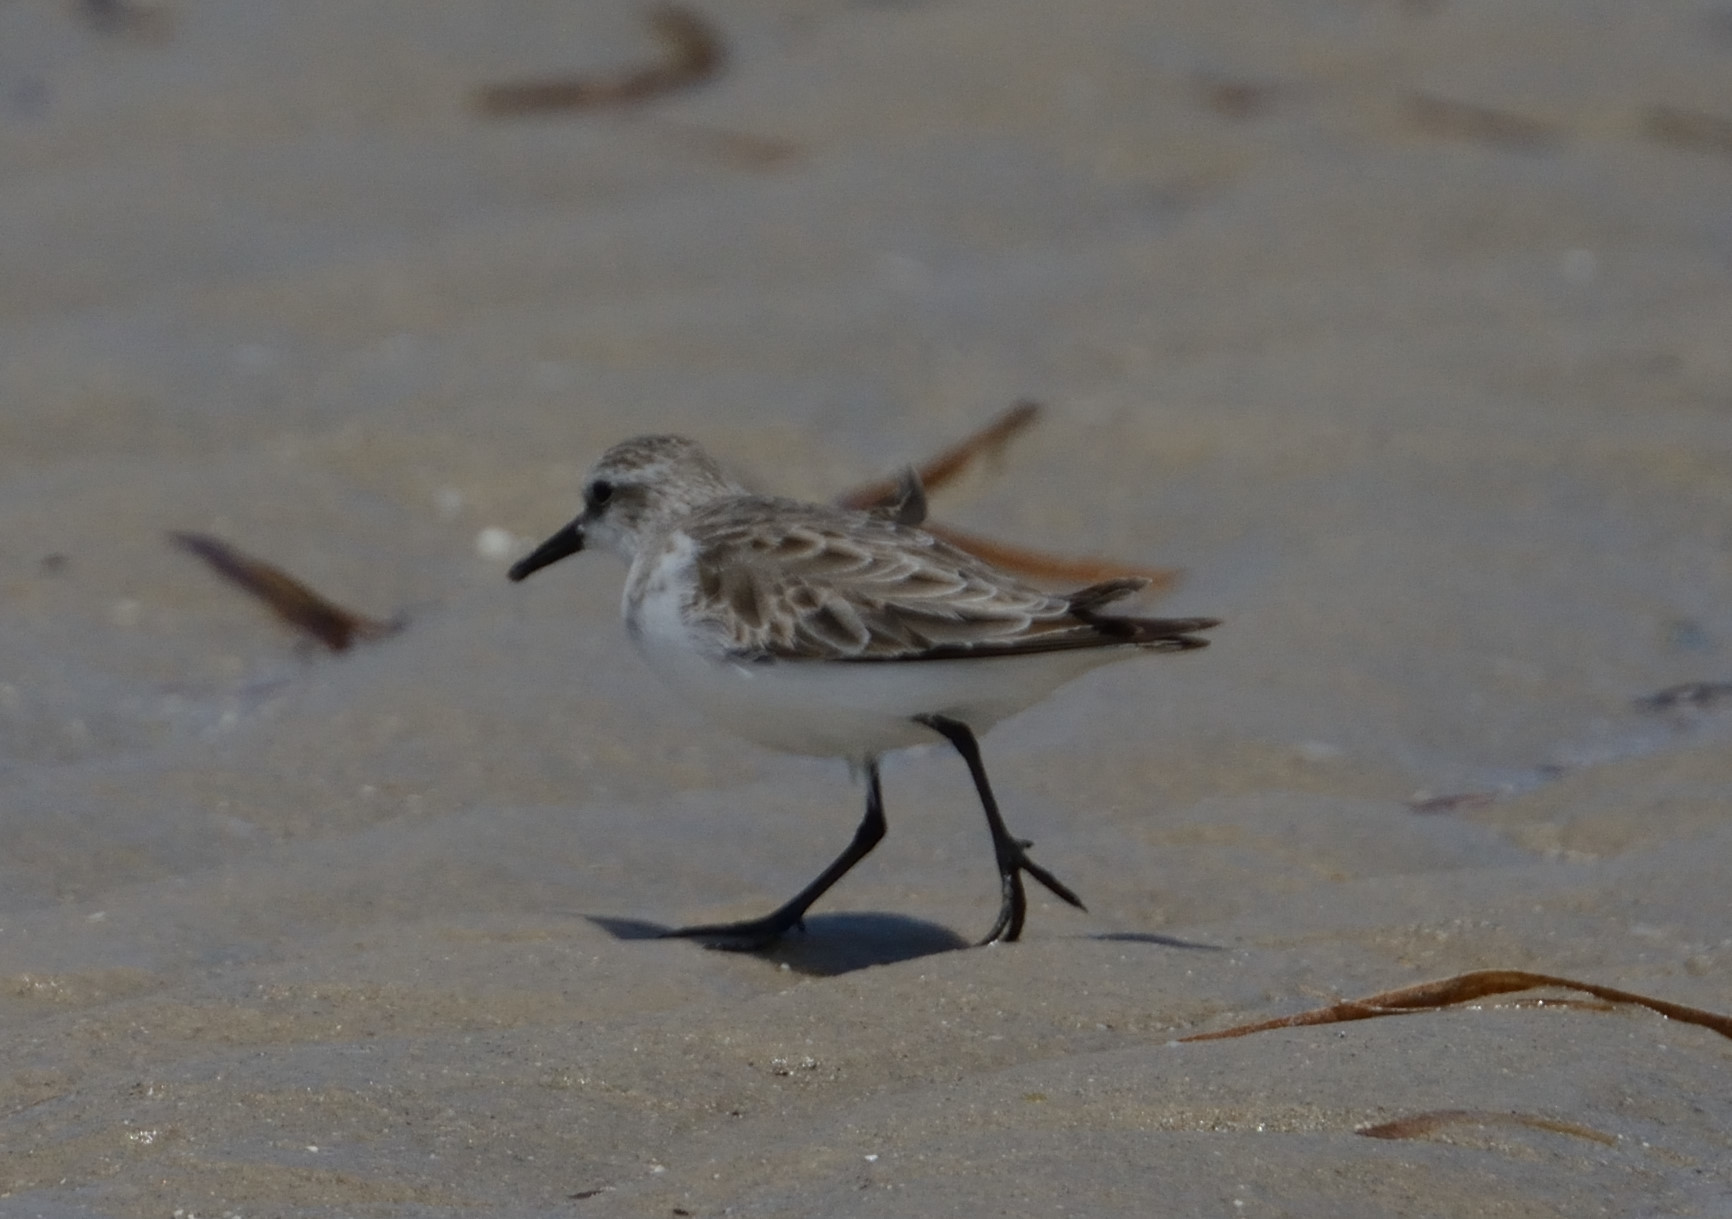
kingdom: Animalia
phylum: Chordata
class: Aves
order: Charadriiformes
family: Scolopacidae
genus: Calidris
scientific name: Calidris ruficollis
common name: Red-necked stint
